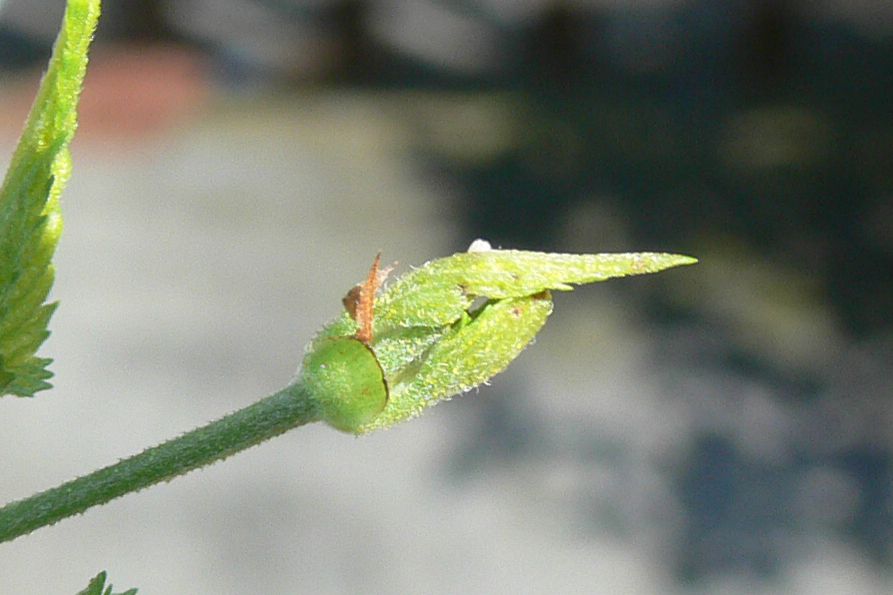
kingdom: Animalia
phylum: Arthropoda
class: Insecta
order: Lepidoptera
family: Nymphalidae
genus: Libytheana
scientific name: Libytheana carinenta
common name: American snout
